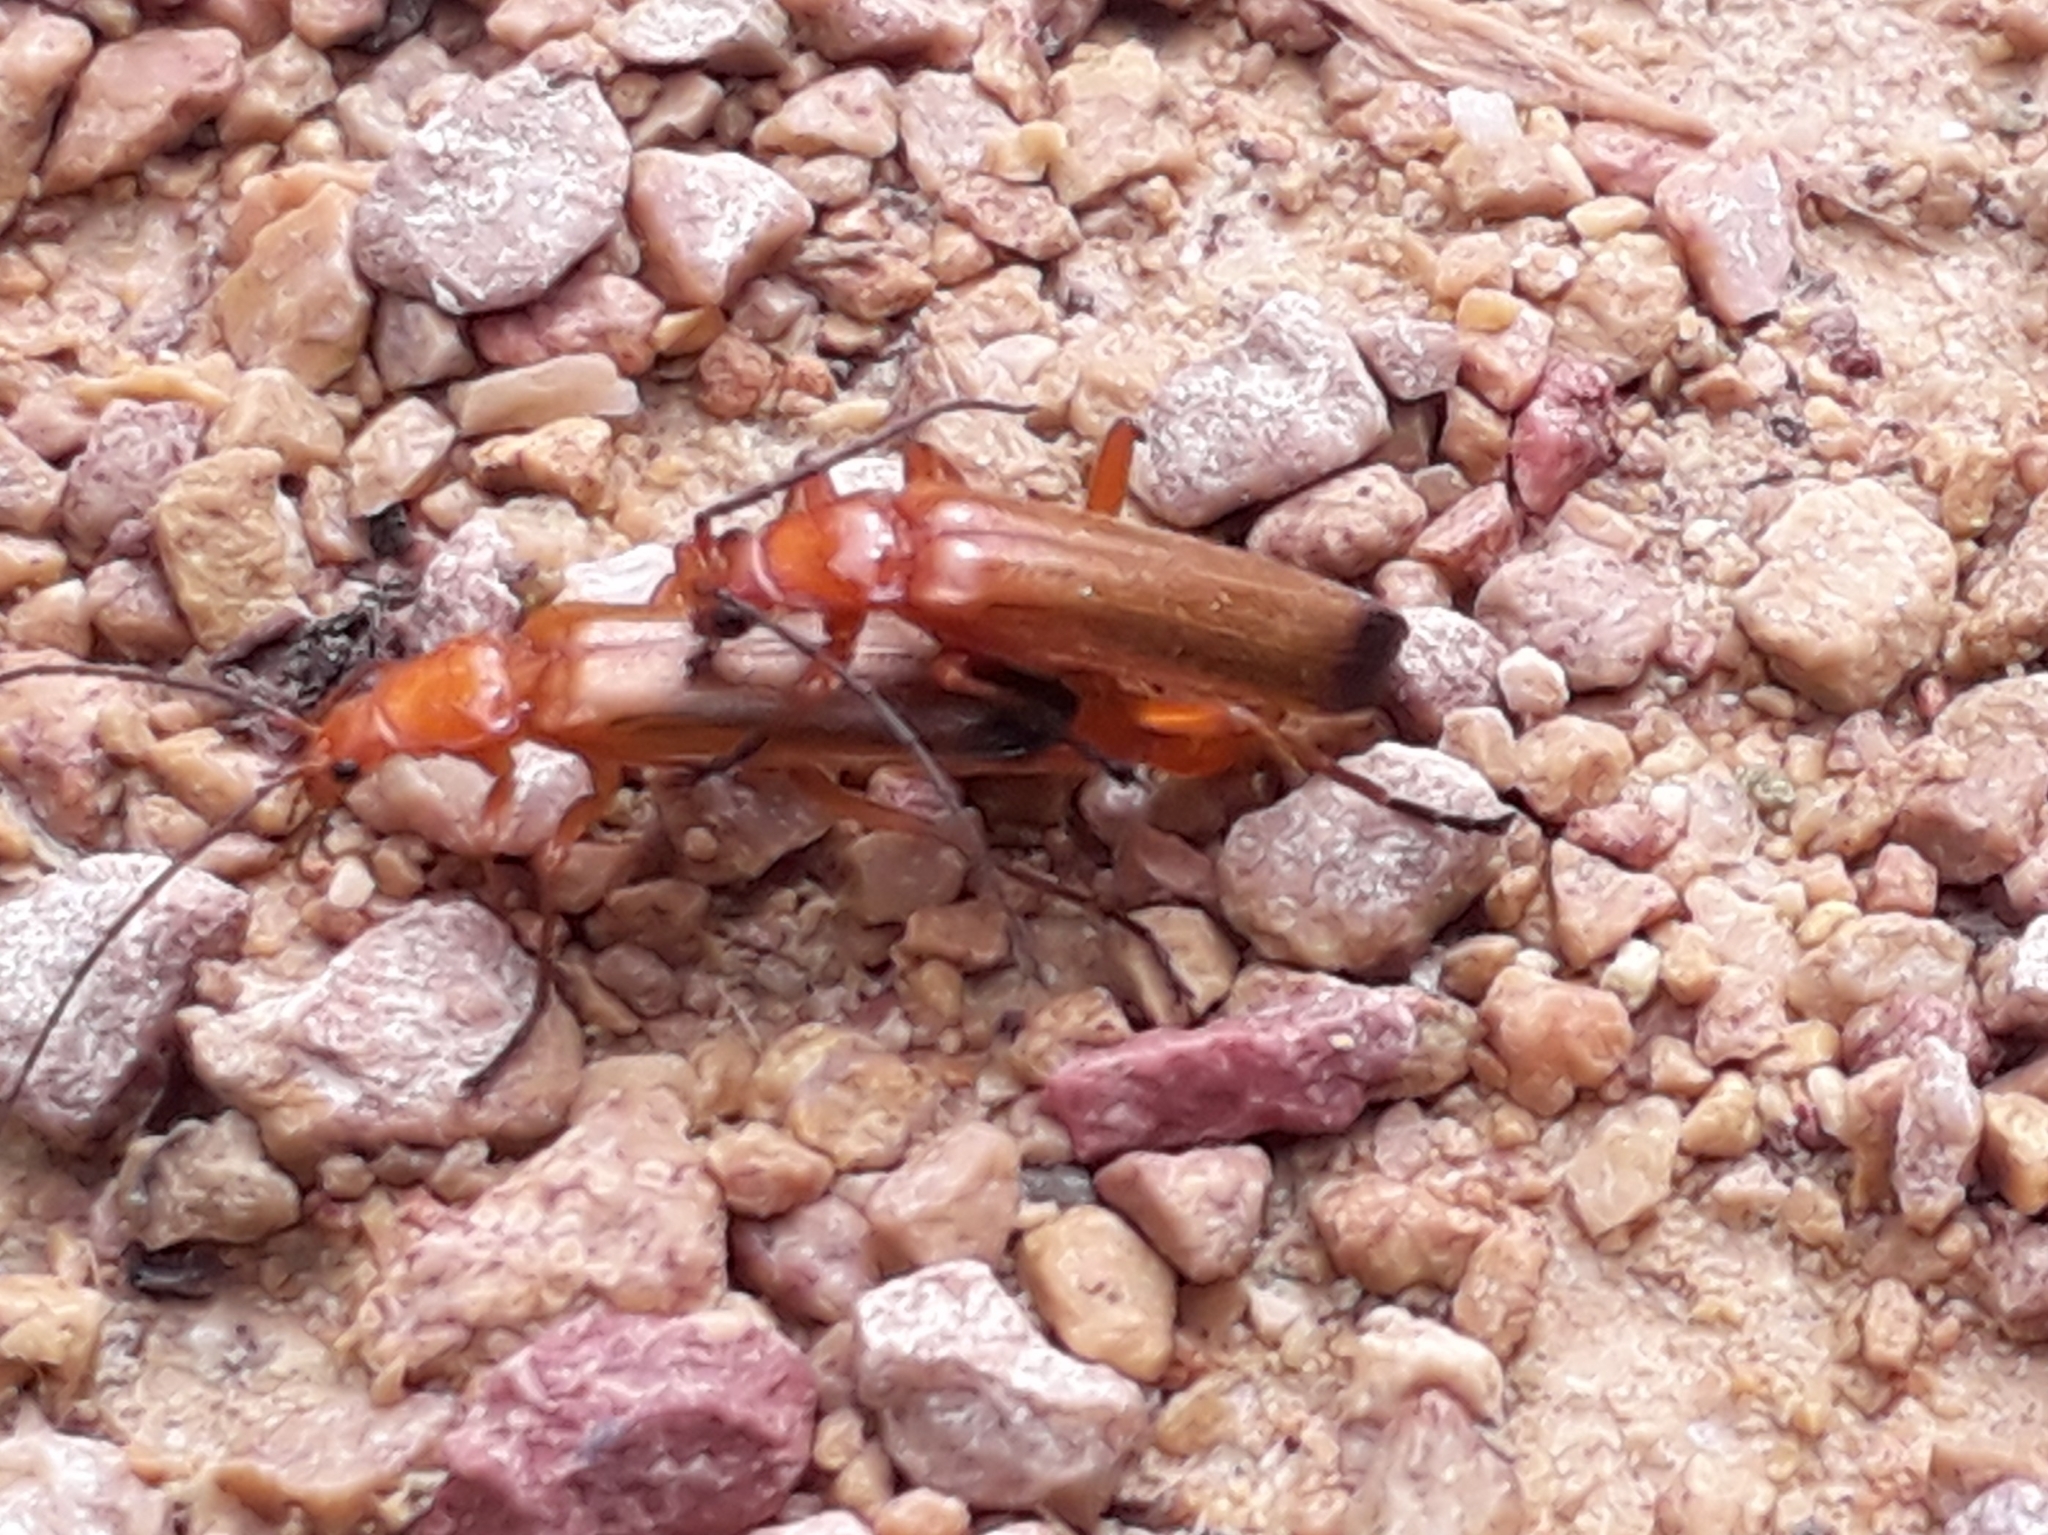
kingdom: Animalia
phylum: Arthropoda
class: Insecta
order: Coleoptera
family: Cantharidae
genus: Rhagonycha
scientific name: Rhagonycha fulva
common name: Common red soldier beetle
